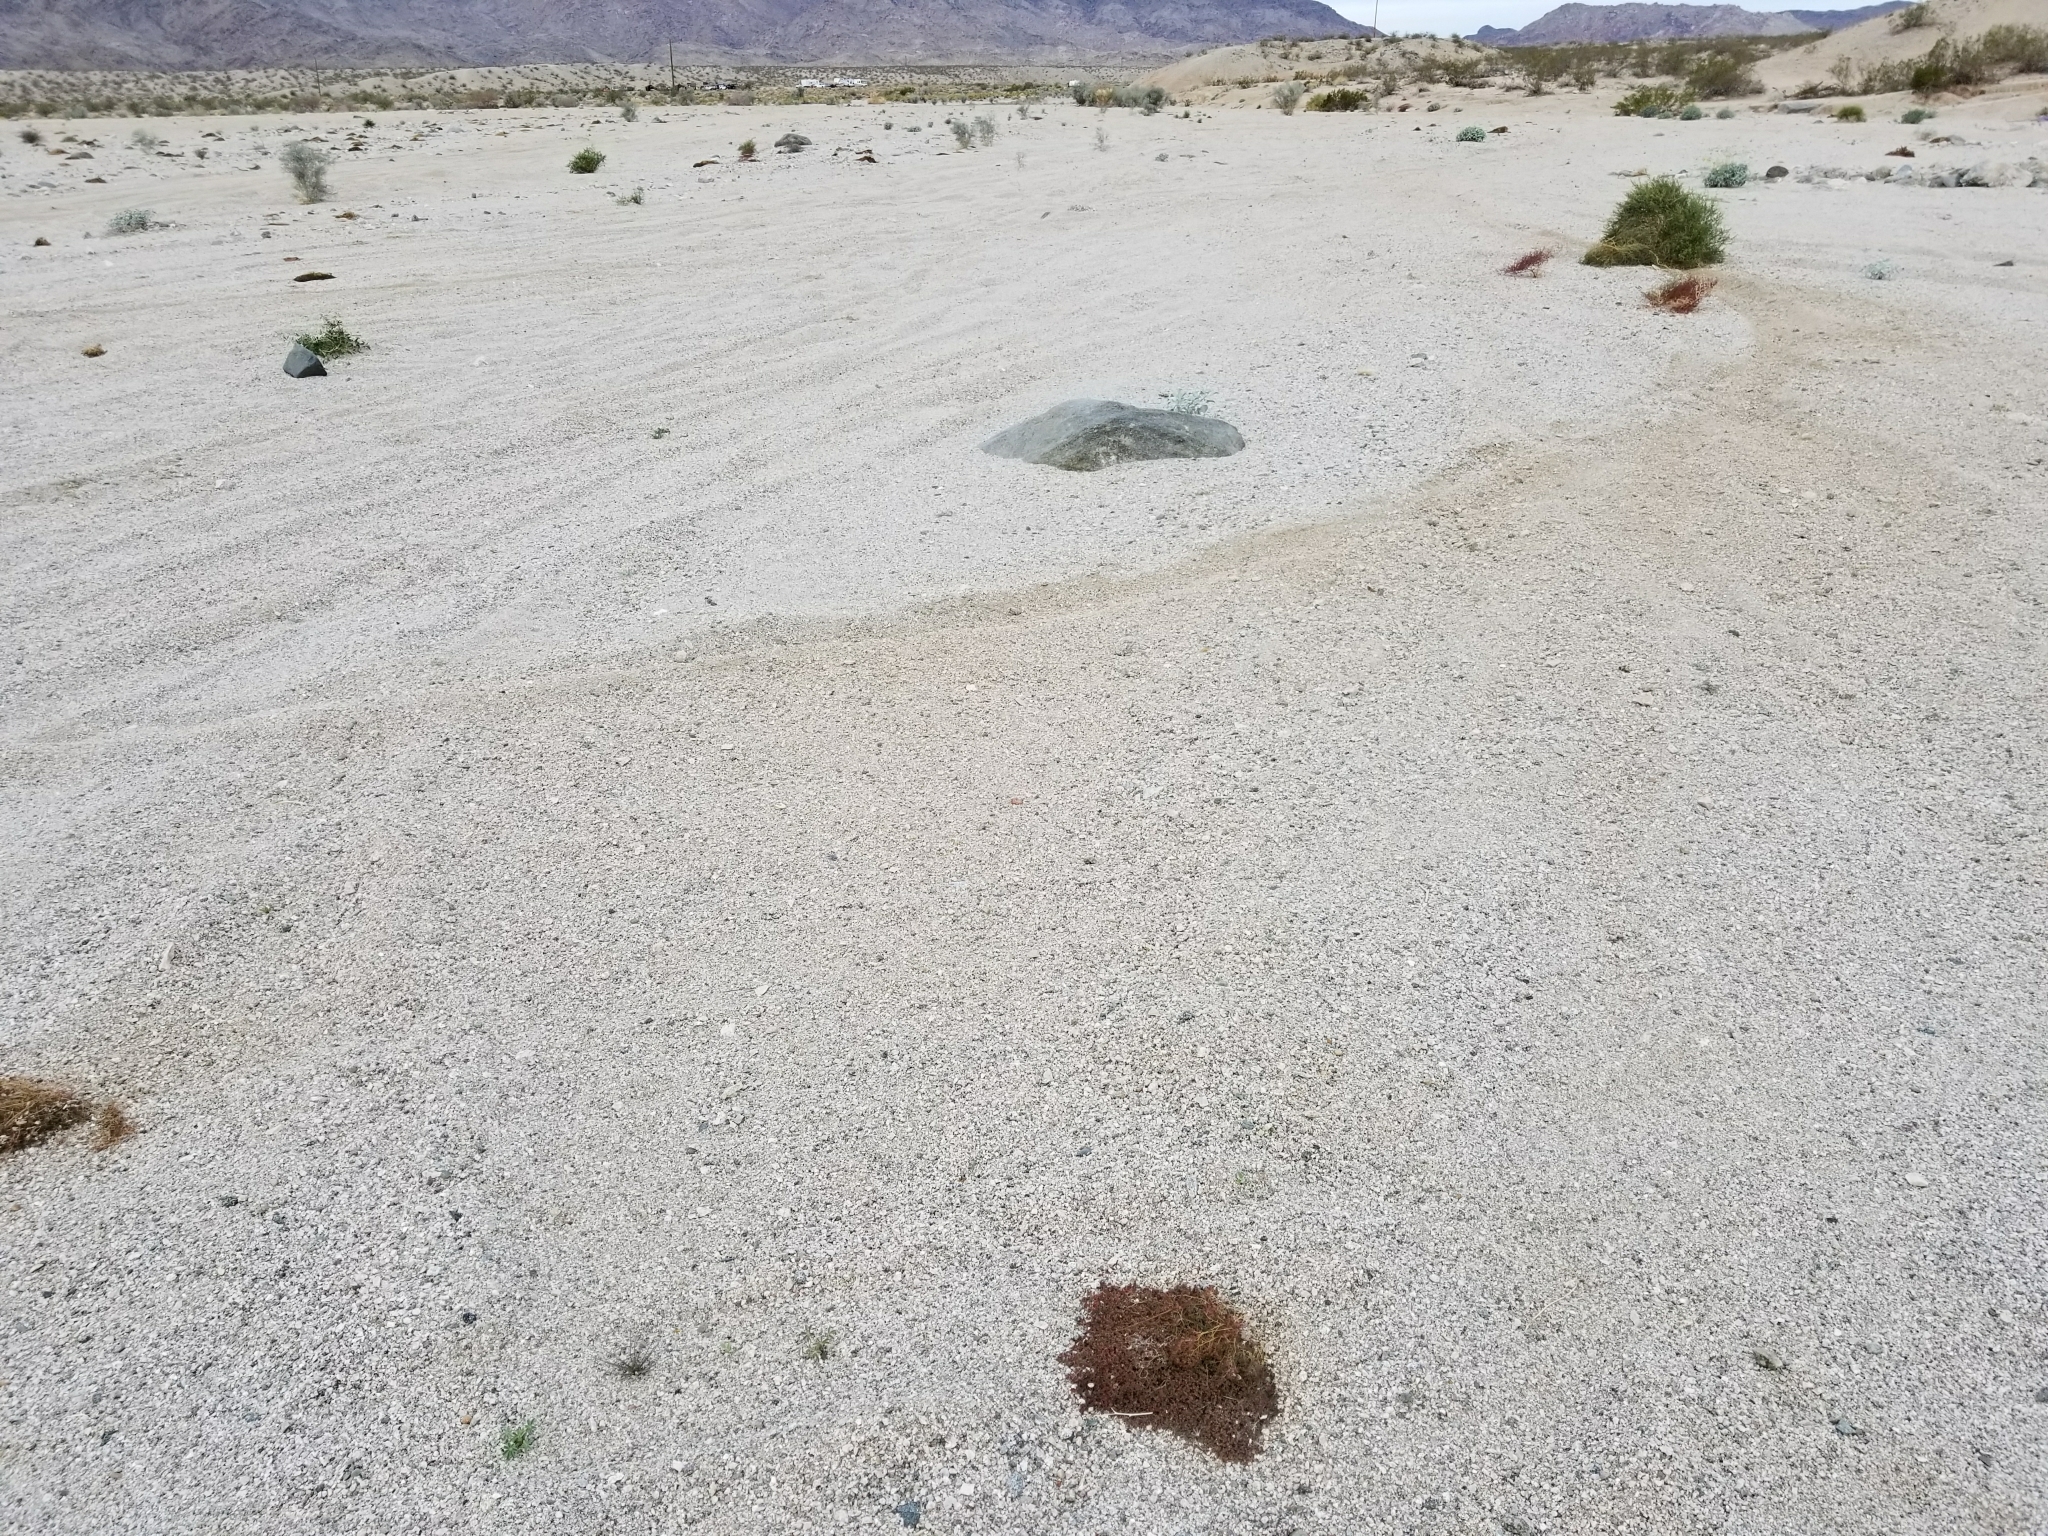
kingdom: Plantae
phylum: Tracheophyta
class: Magnoliopsida
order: Malpighiales
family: Euphorbiaceae
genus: Euphorbia
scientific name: Euphorbia polycarpa
